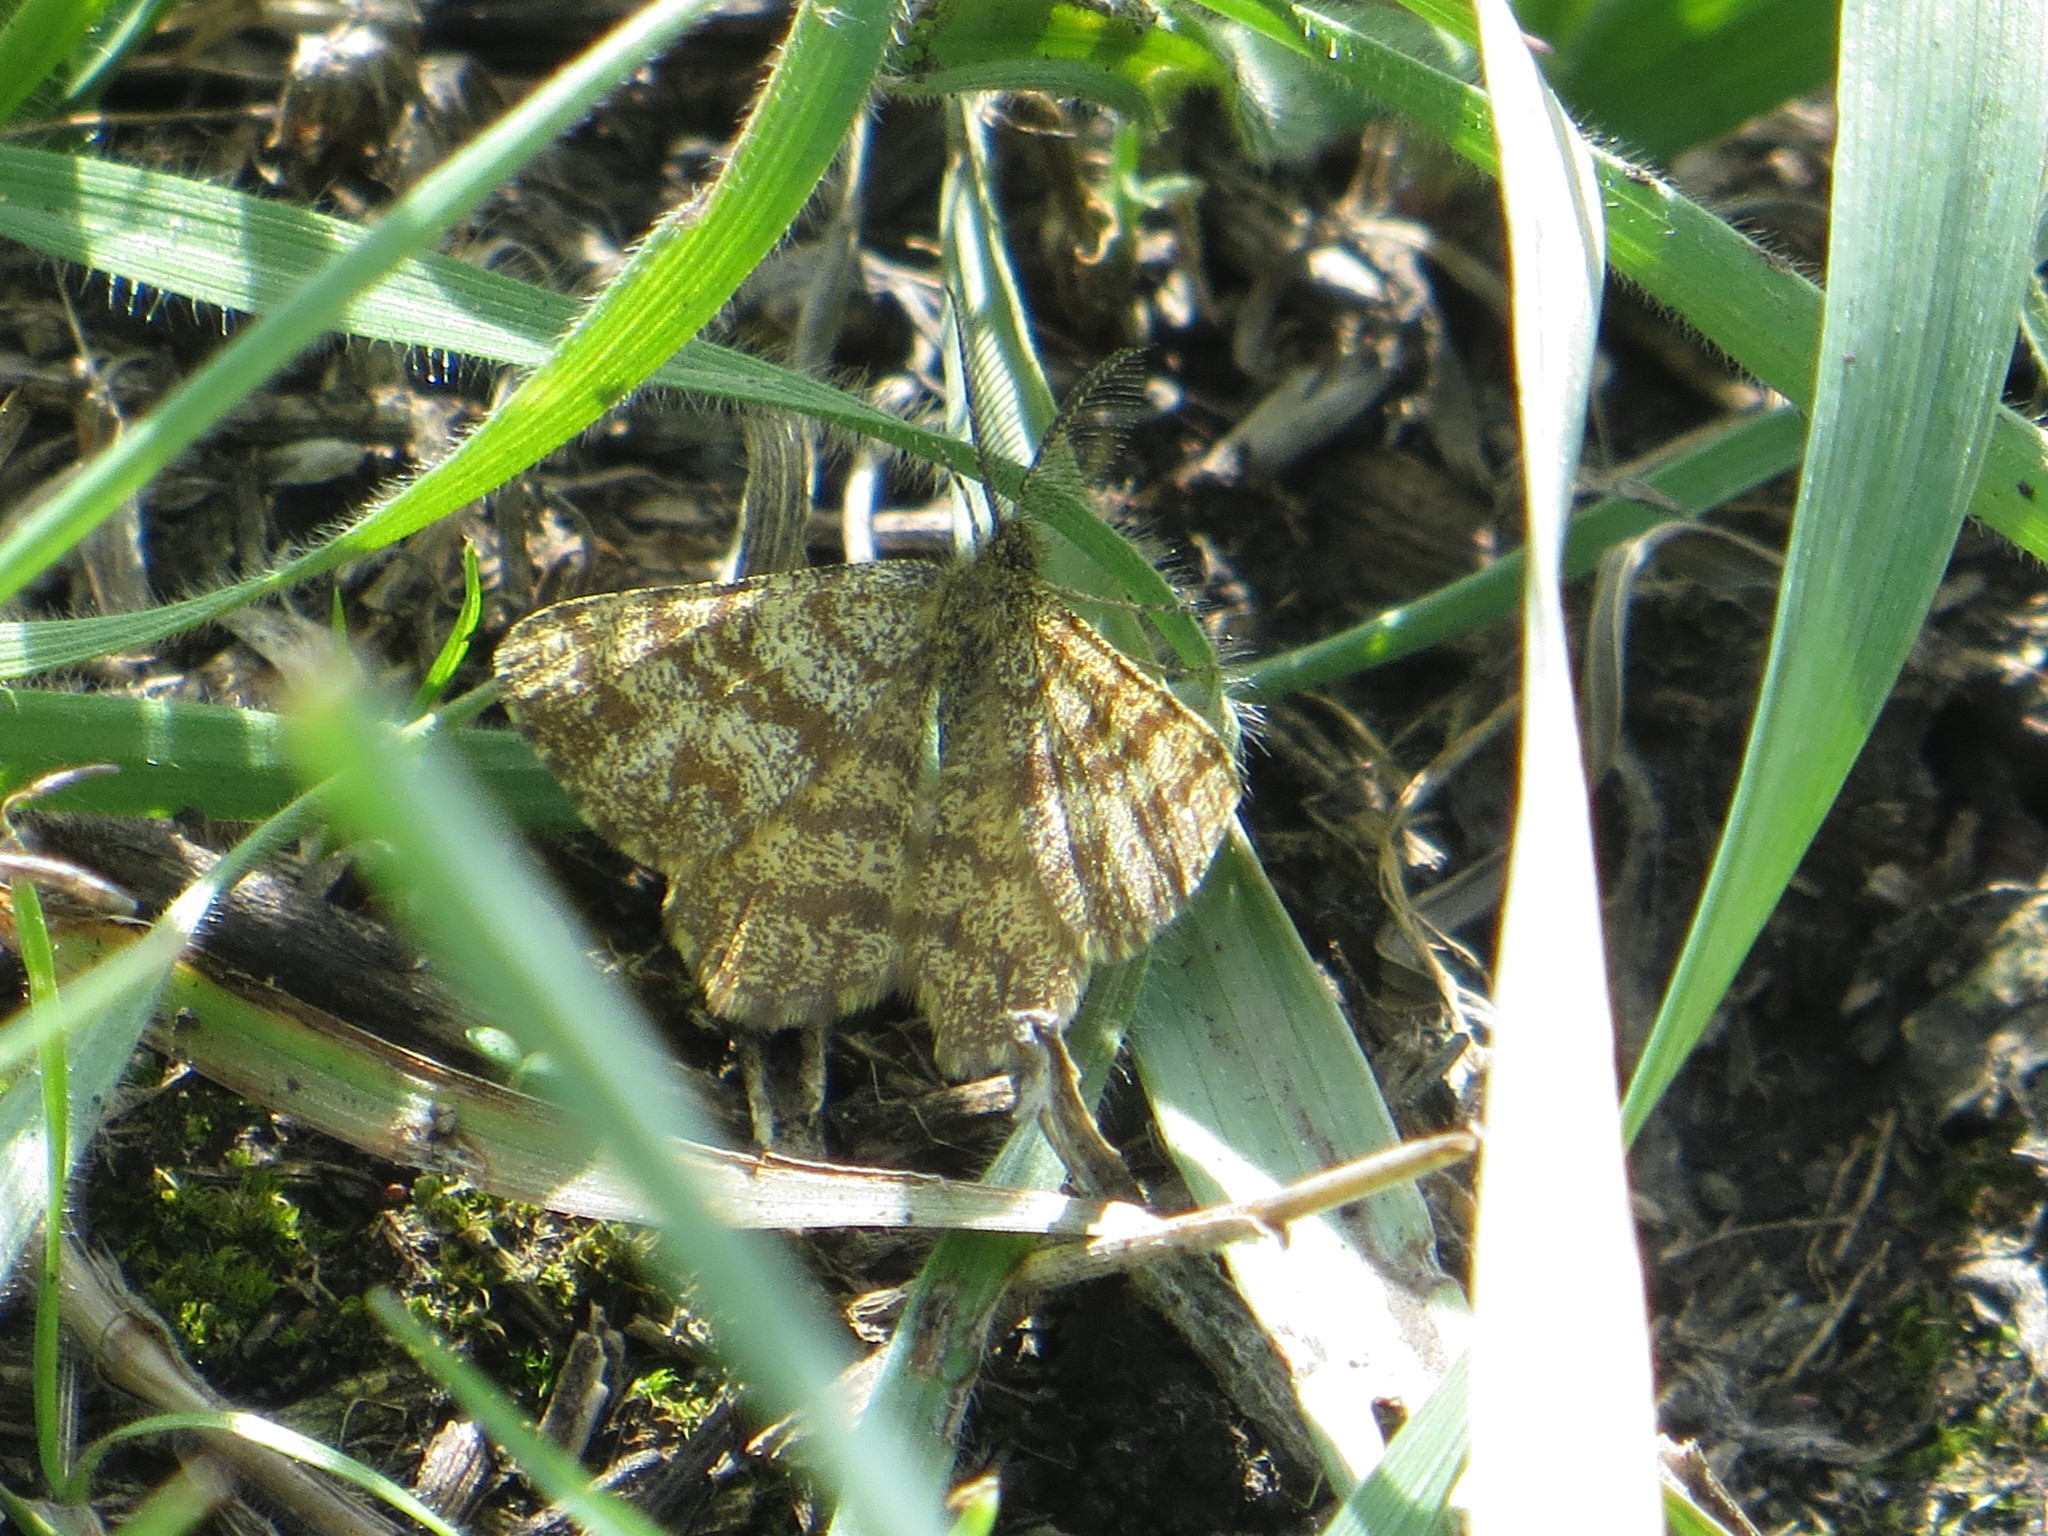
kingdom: Animalia
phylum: Arthropoda
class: Insecta
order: Lepidoptera
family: Geometridae
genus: Ematurga
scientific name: Ematurga atomaria
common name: Common heath
